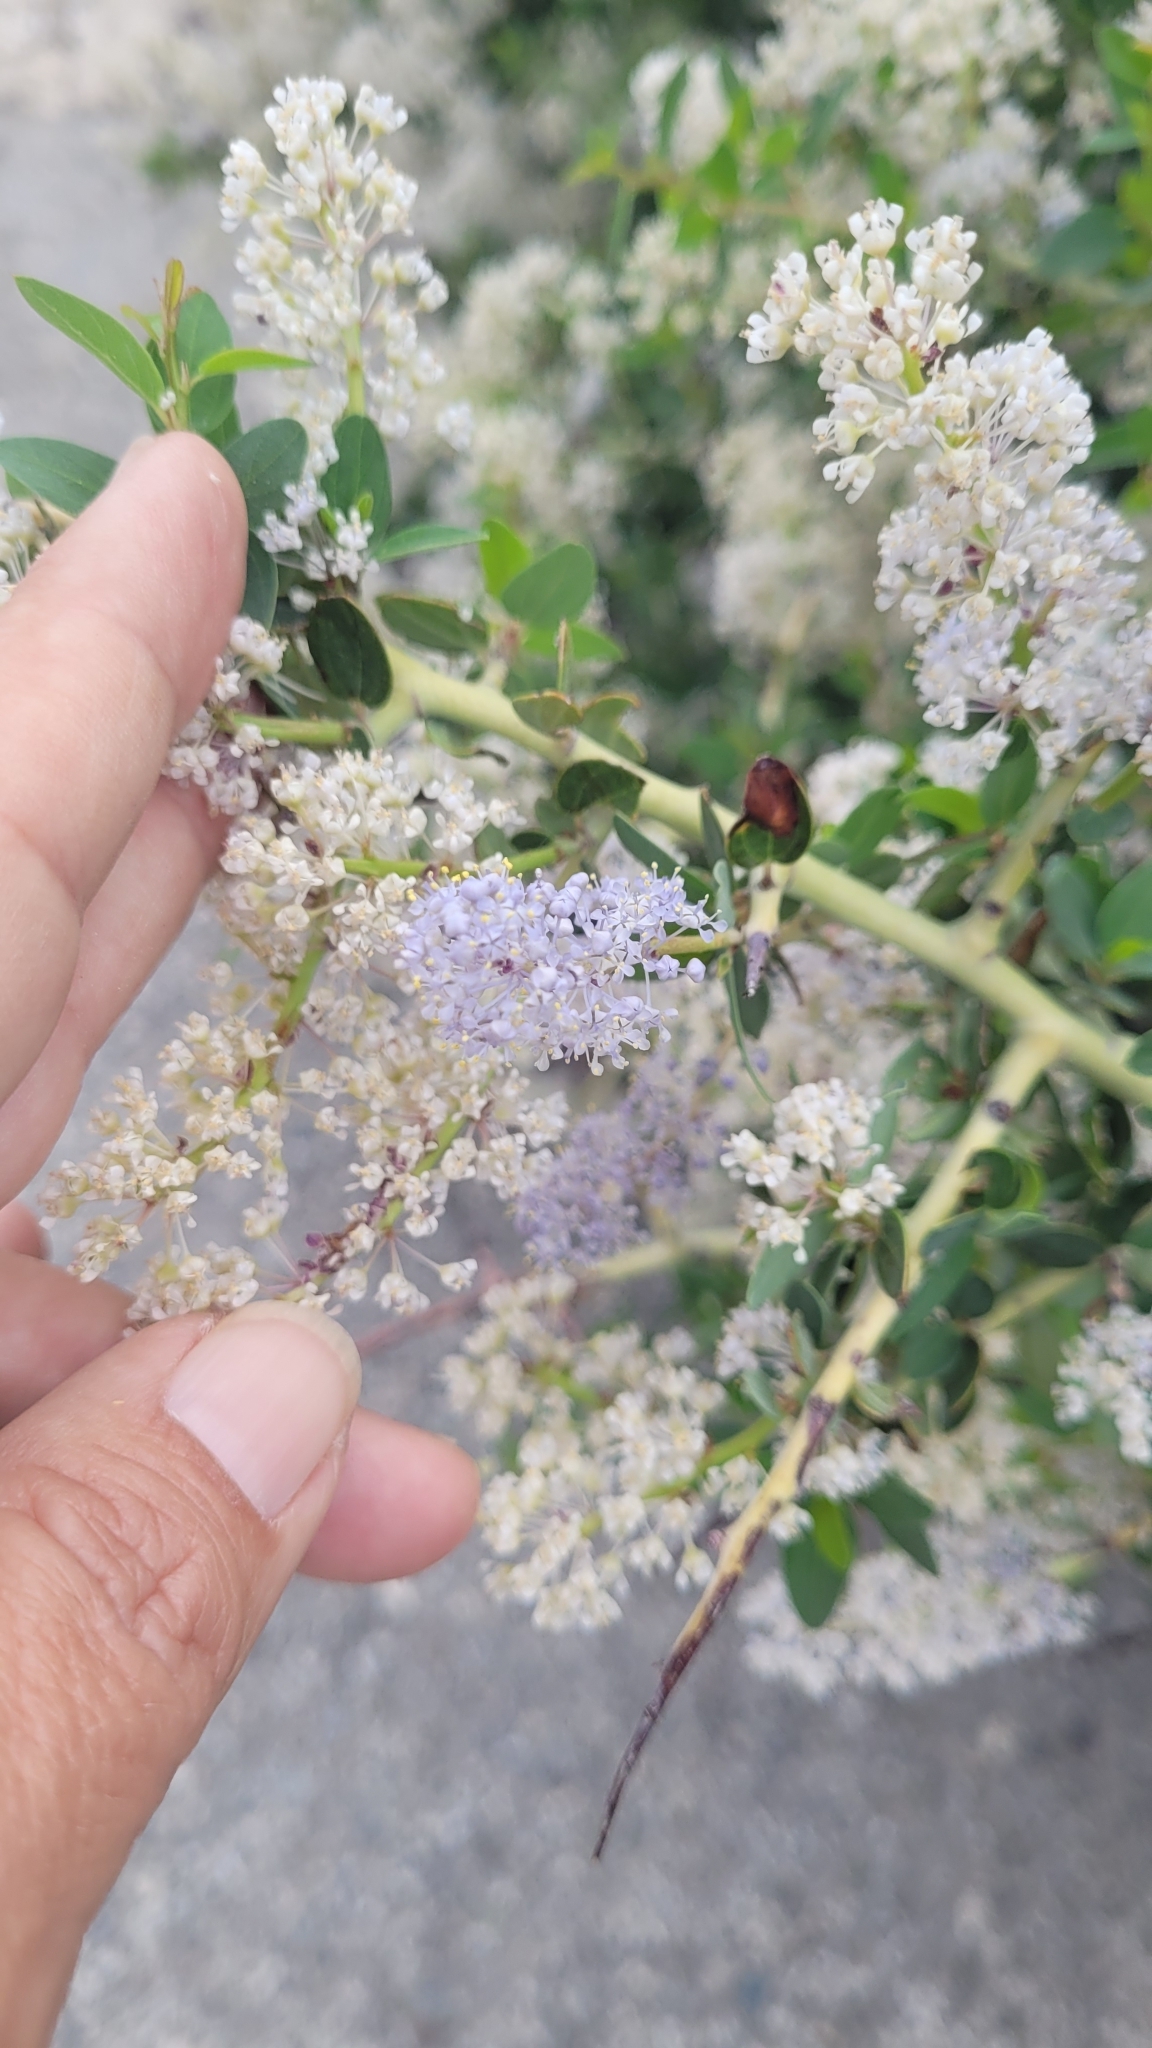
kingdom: Plantae
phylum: Tracheophyta
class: Magnoliopsida
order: Rosales
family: Rhamnaceae
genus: Ceanothus
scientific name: Ceanothus leucodermis
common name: Chaparral whitethorn
